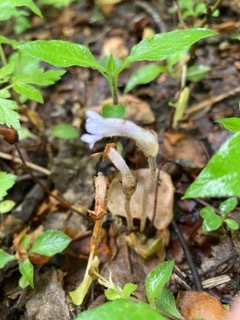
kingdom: Plantae
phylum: Tracheophyta
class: Magnoliopsida
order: Lamiales
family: Orobanchaceae
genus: Aphyllon
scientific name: Aphyllon uniflorum
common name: One-flowered broomrape
